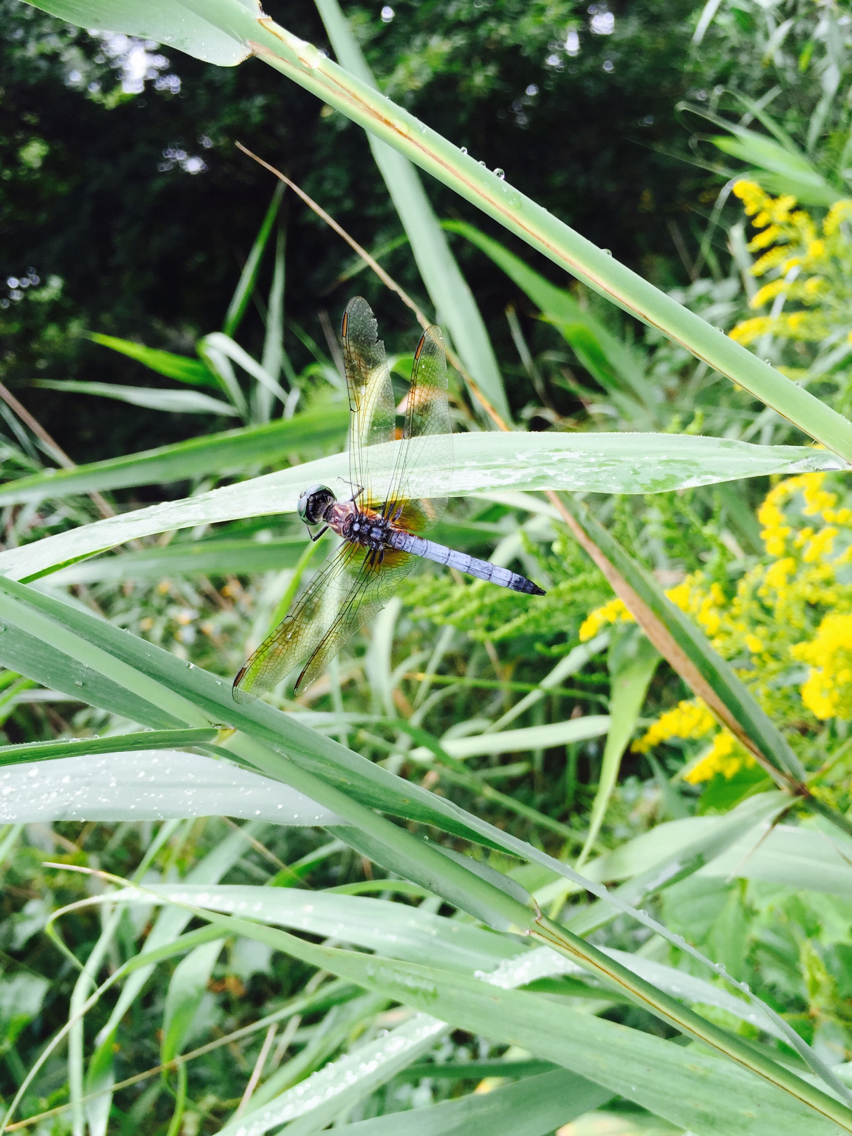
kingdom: Animalia
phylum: Arthropoda
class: Insecta
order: Odonata
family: Libellulidae
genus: Pachydiplax
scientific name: Pachydiplax longipennis
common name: Blue dasher
